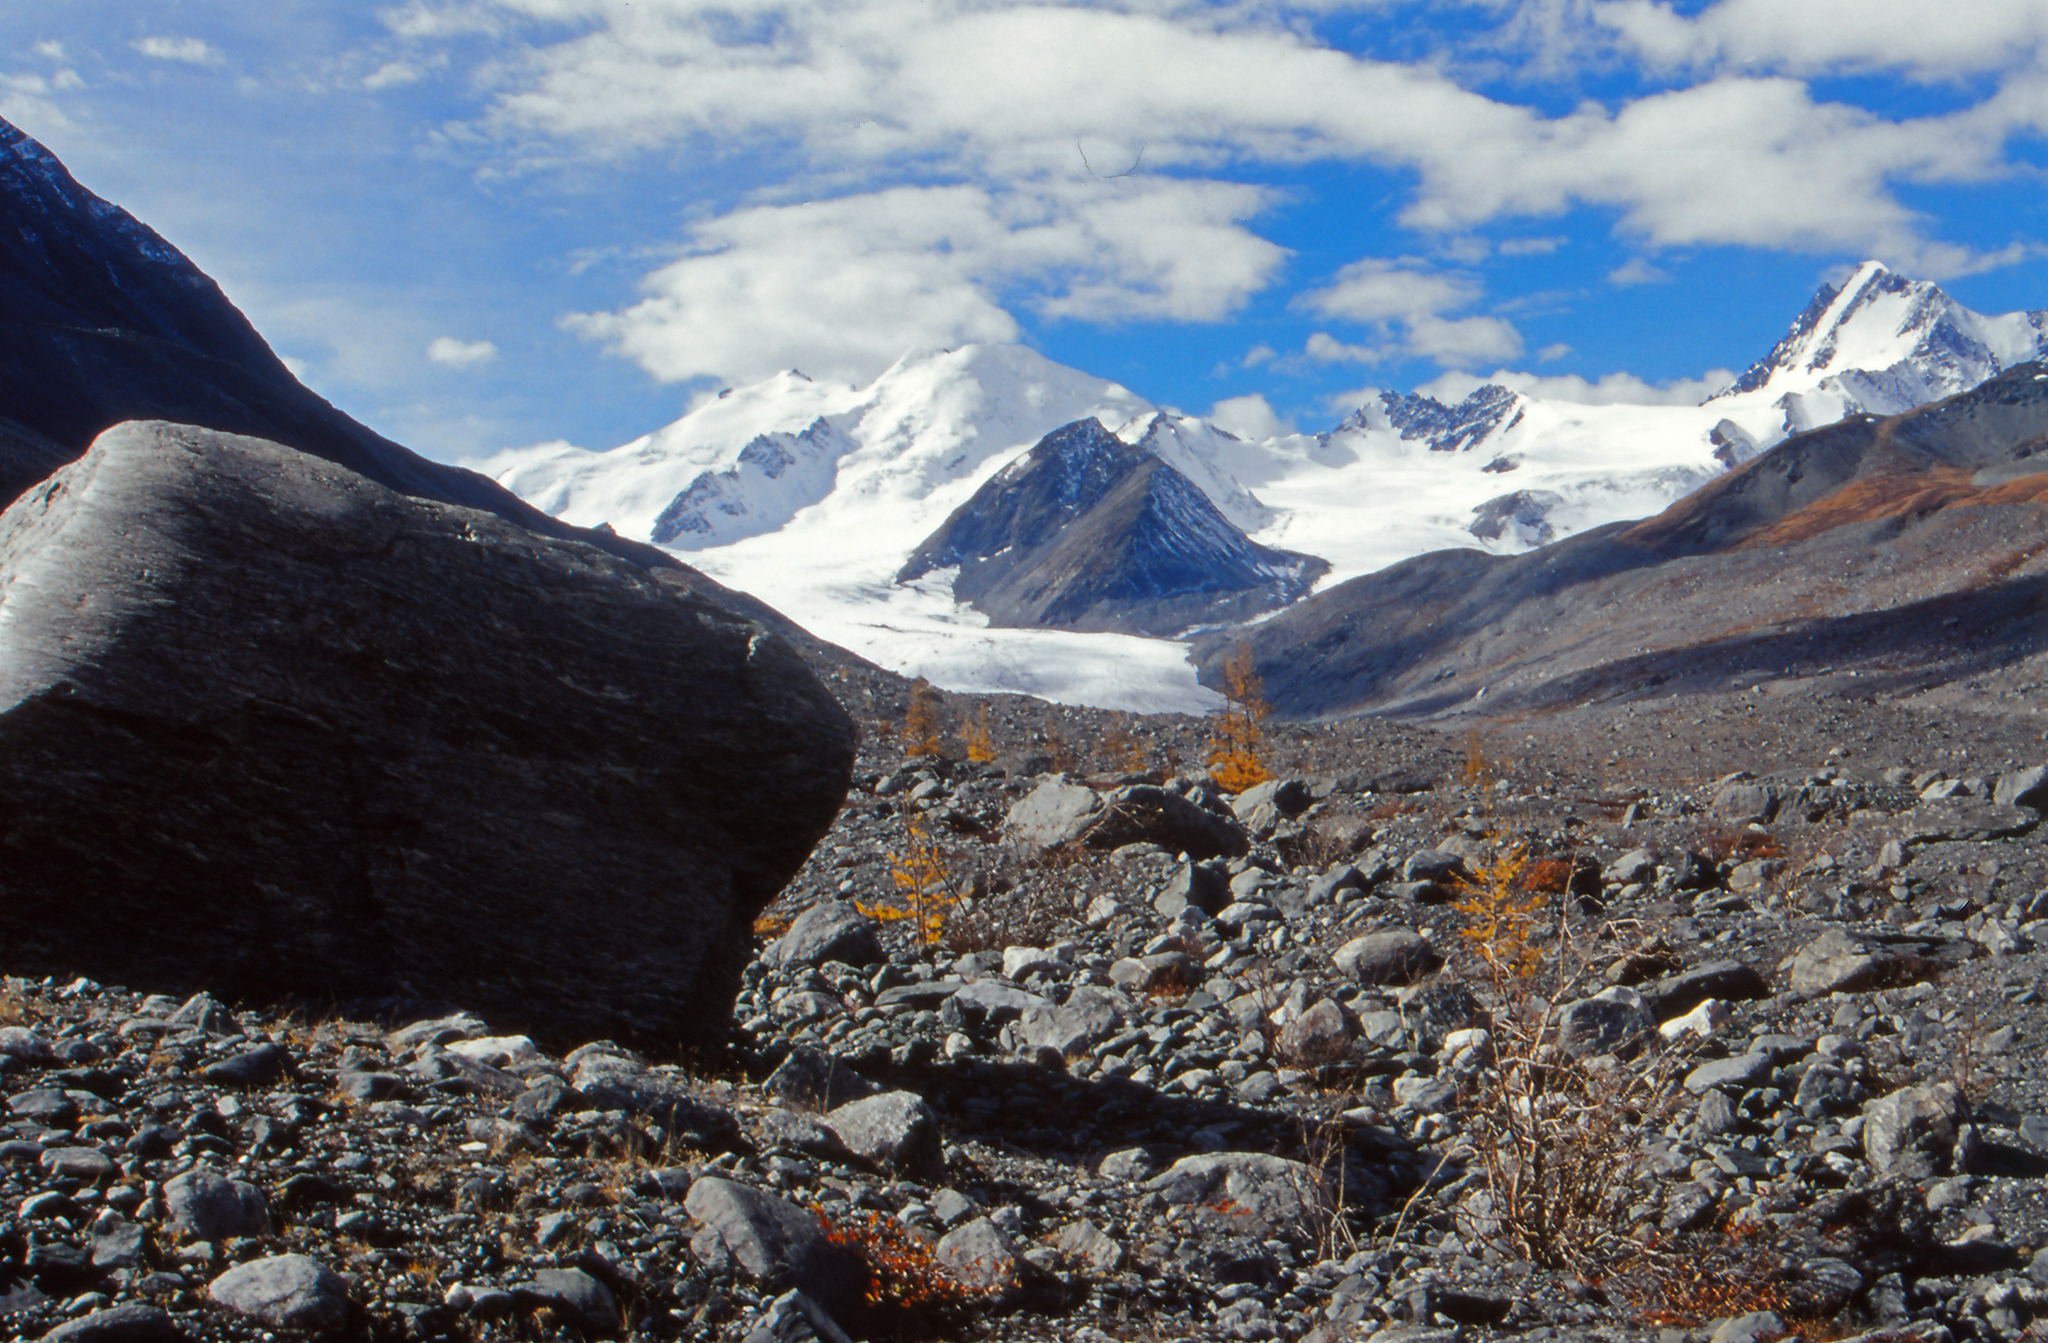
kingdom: Plantae
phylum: Tracheophyta
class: Pinopsida
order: Pinales
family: Pinaceae
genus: Larix
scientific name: Larix sibirica
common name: Siberian larch
